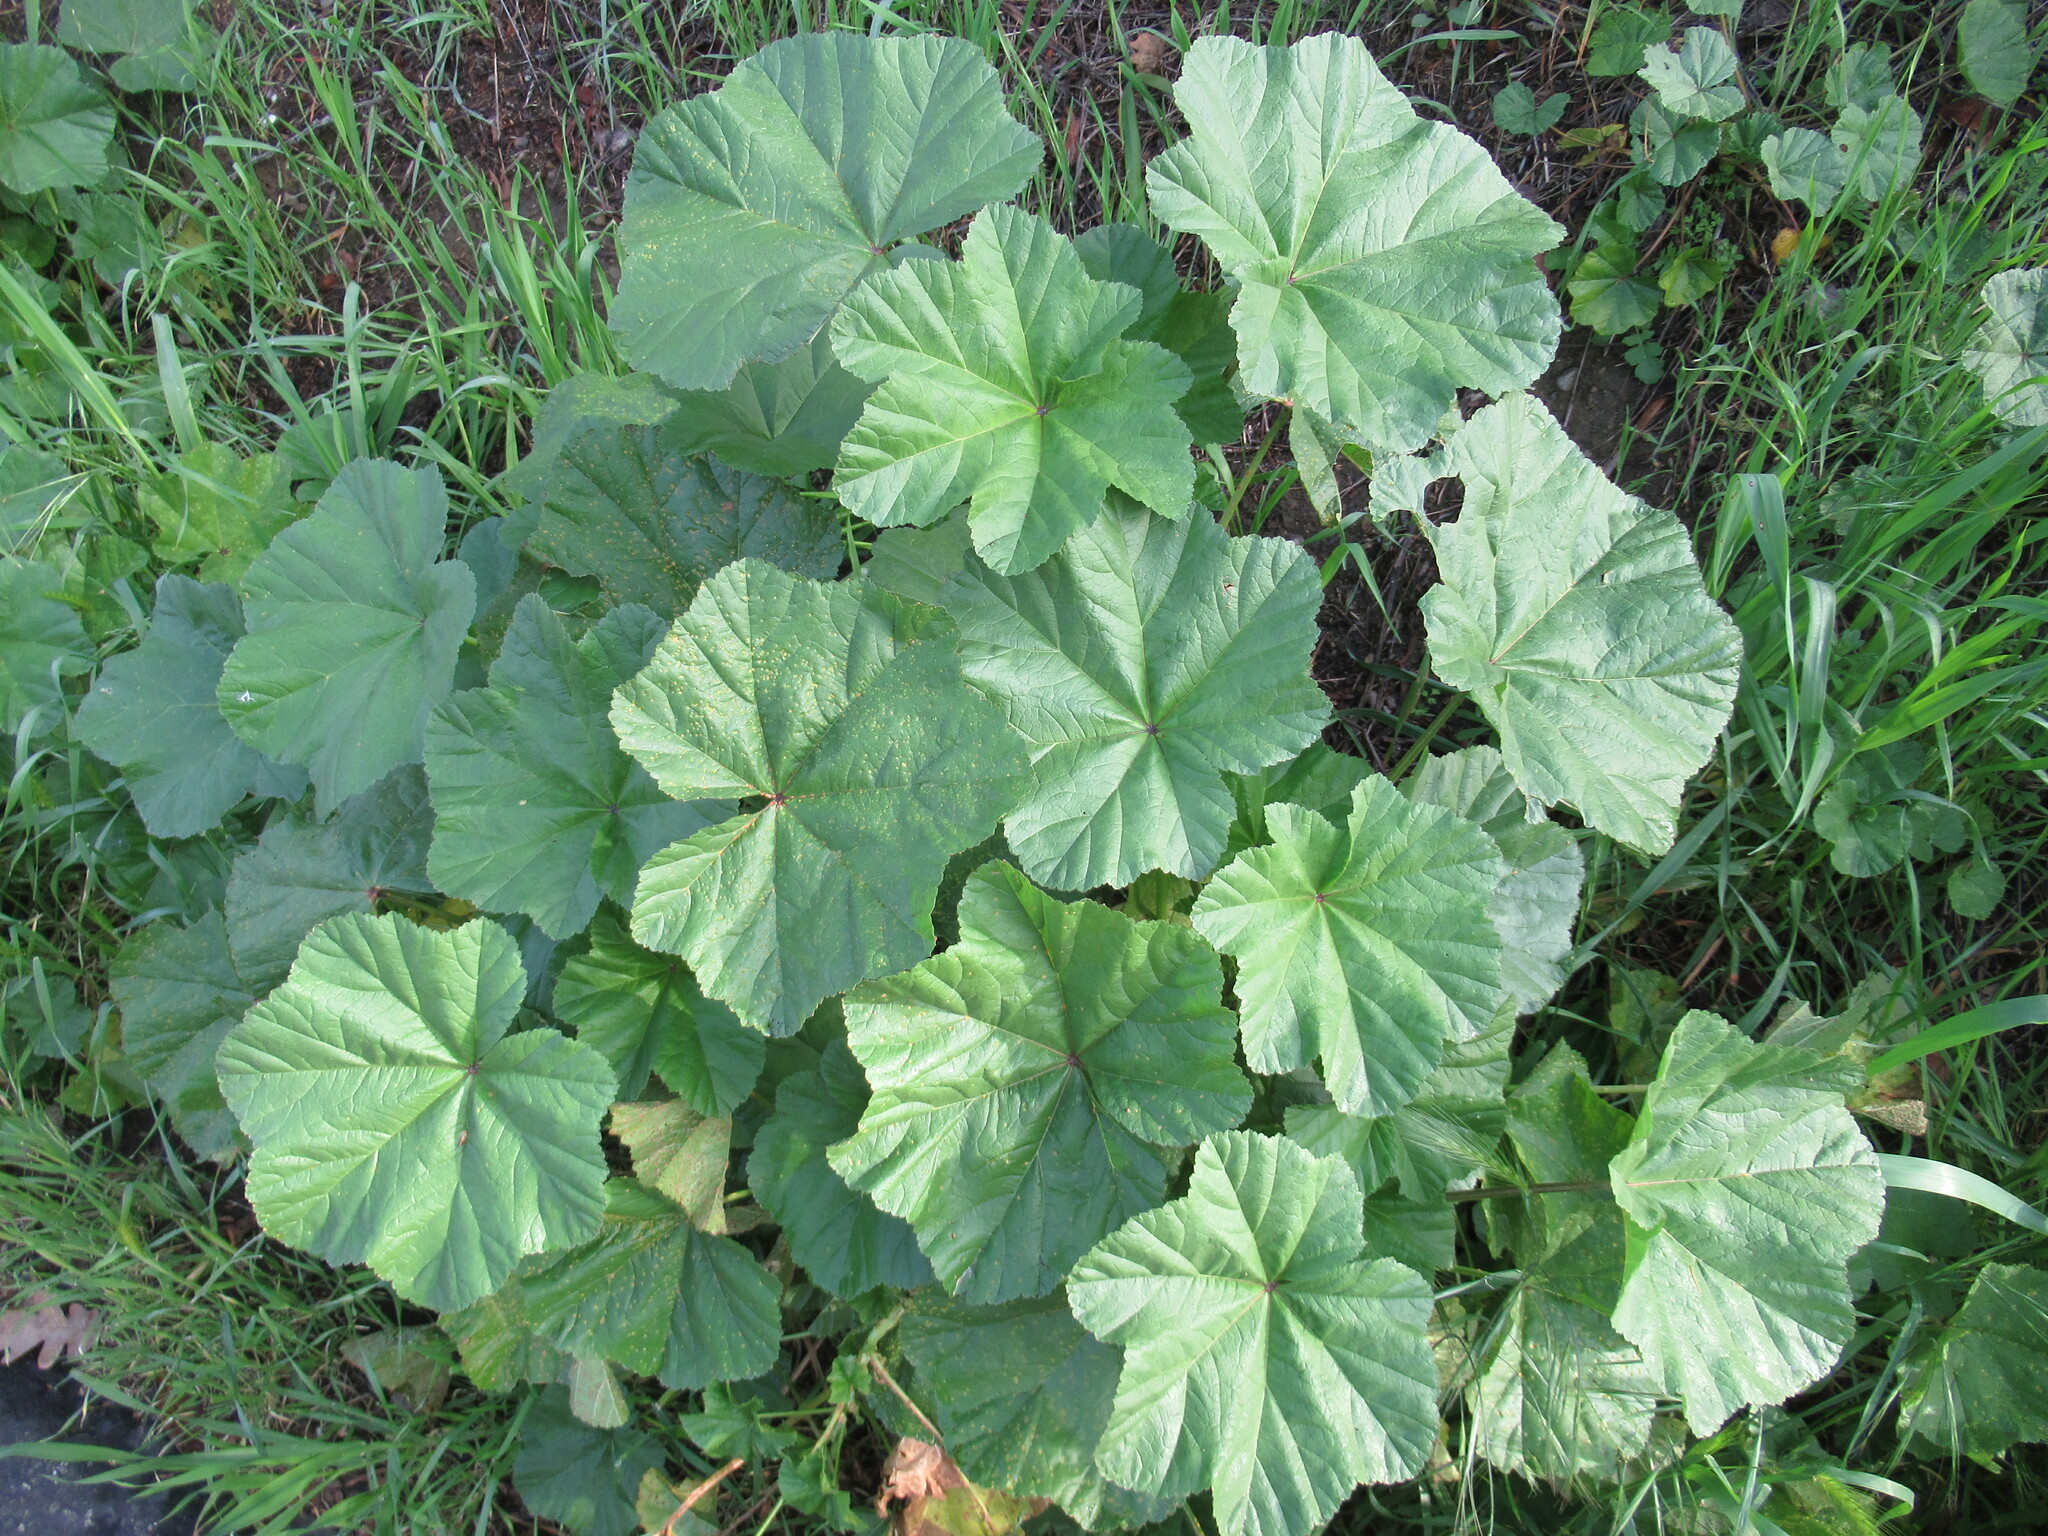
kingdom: Plantae
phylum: Tracheophyta
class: Magnoliopsida
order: Malvales
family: Malvaceae
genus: Malva
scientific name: Malva
